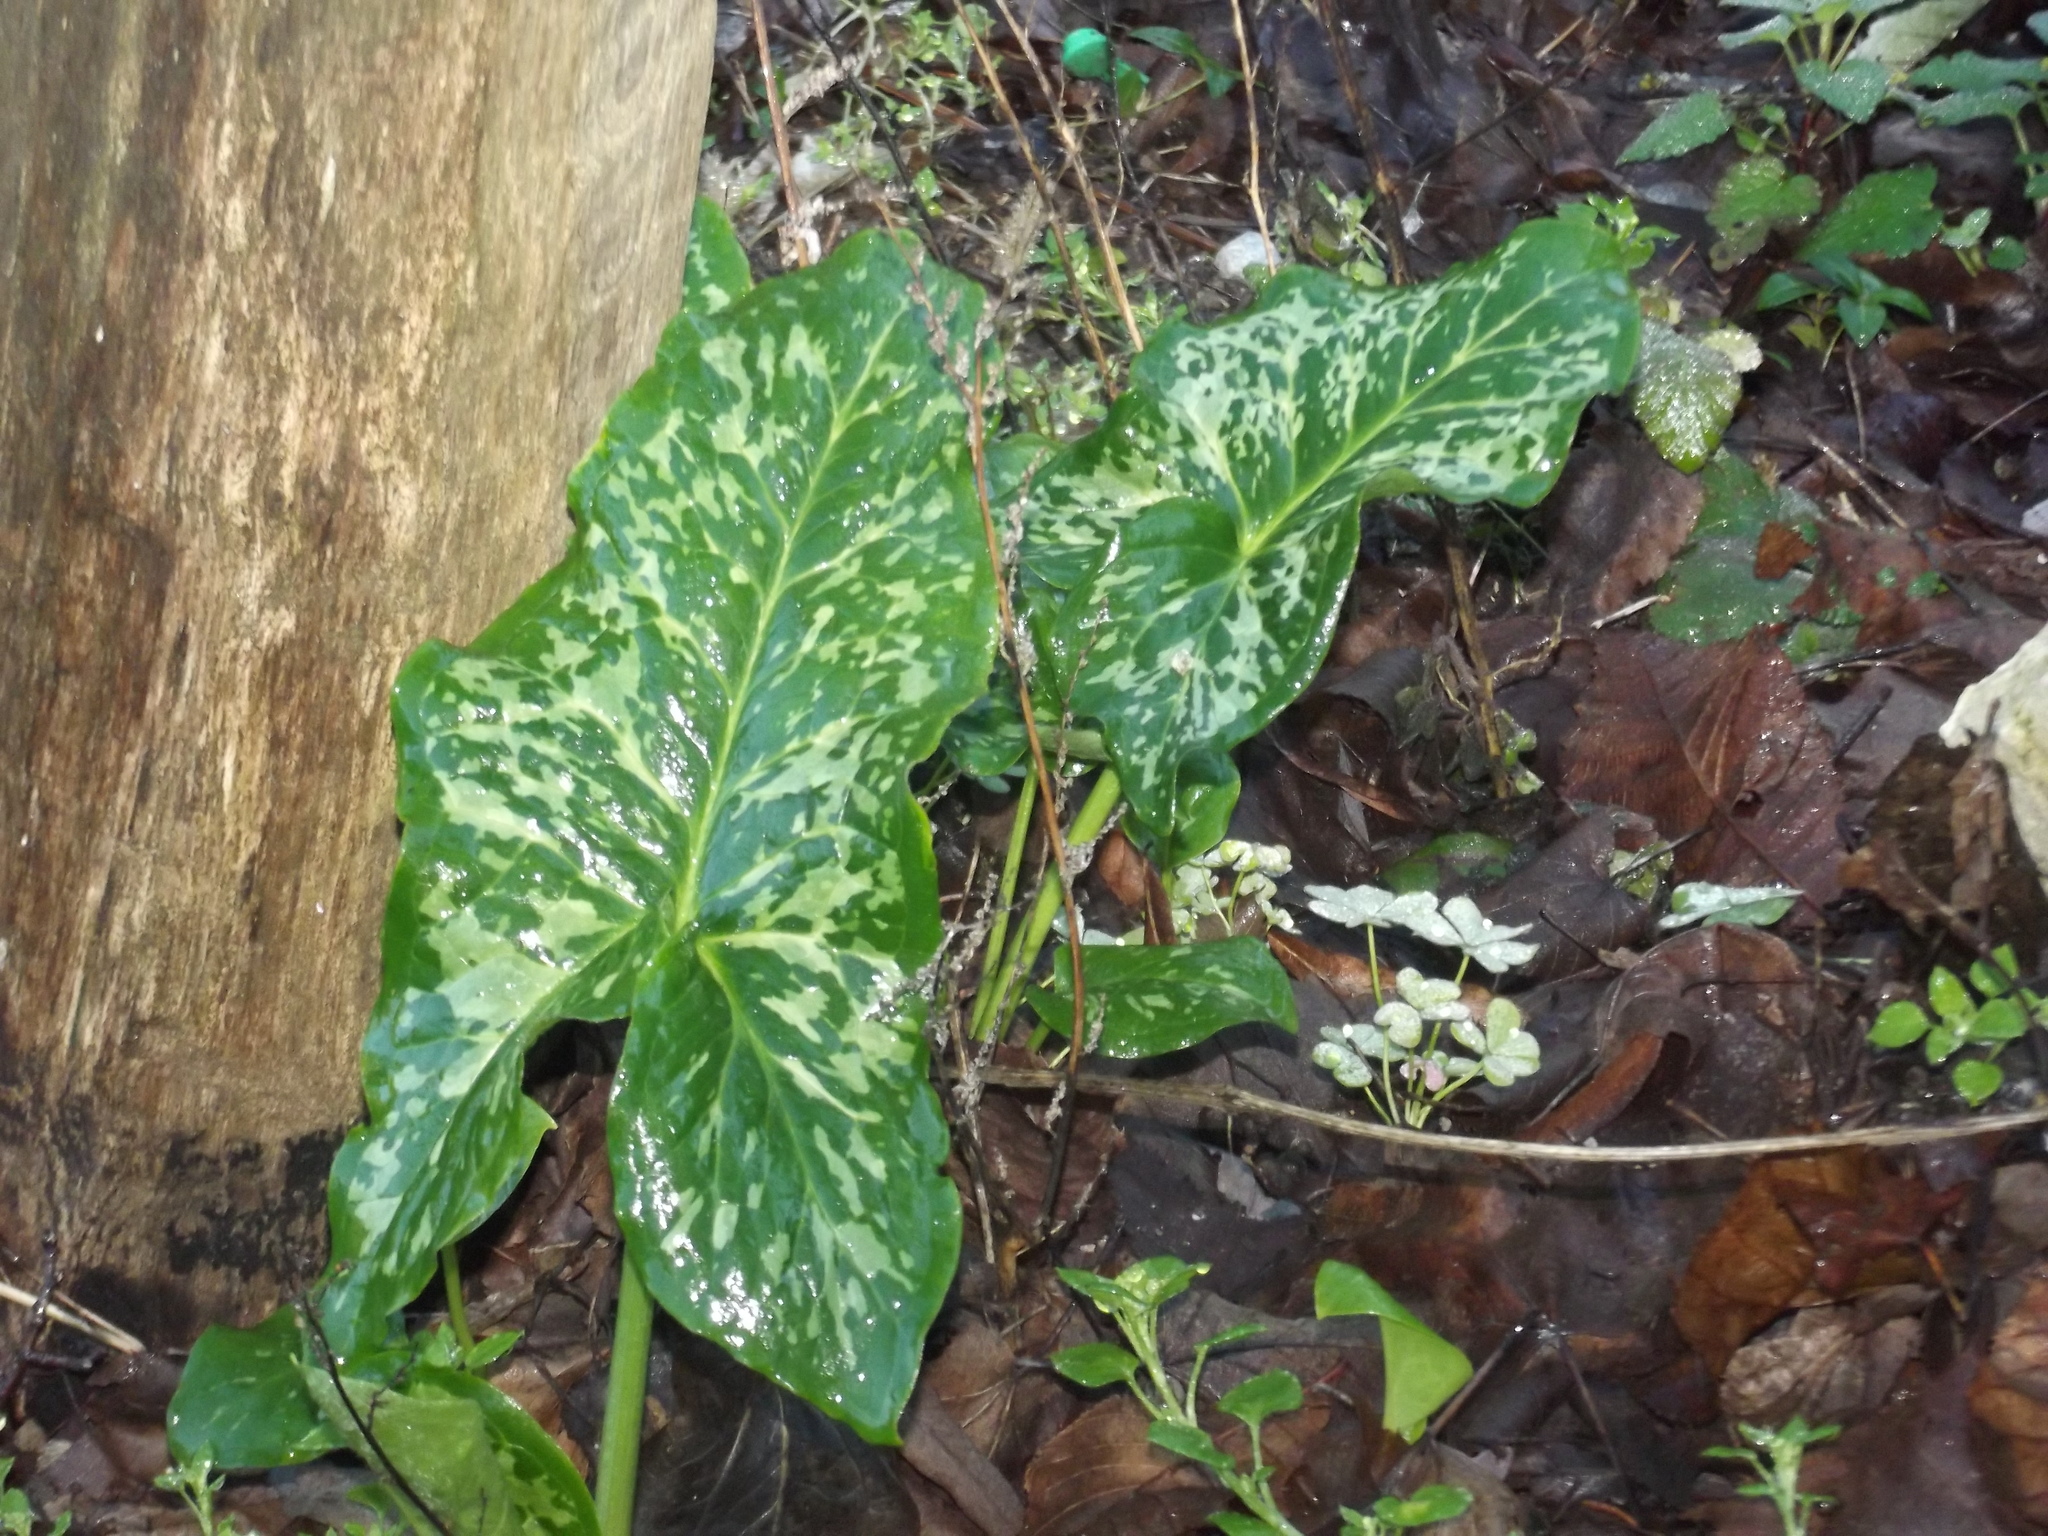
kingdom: Plantae
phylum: Tracheophyta
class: Liliopsida
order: Alismatales
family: Araceae
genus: Arum
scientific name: Arum italicum
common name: Italian lords-and-ladies
